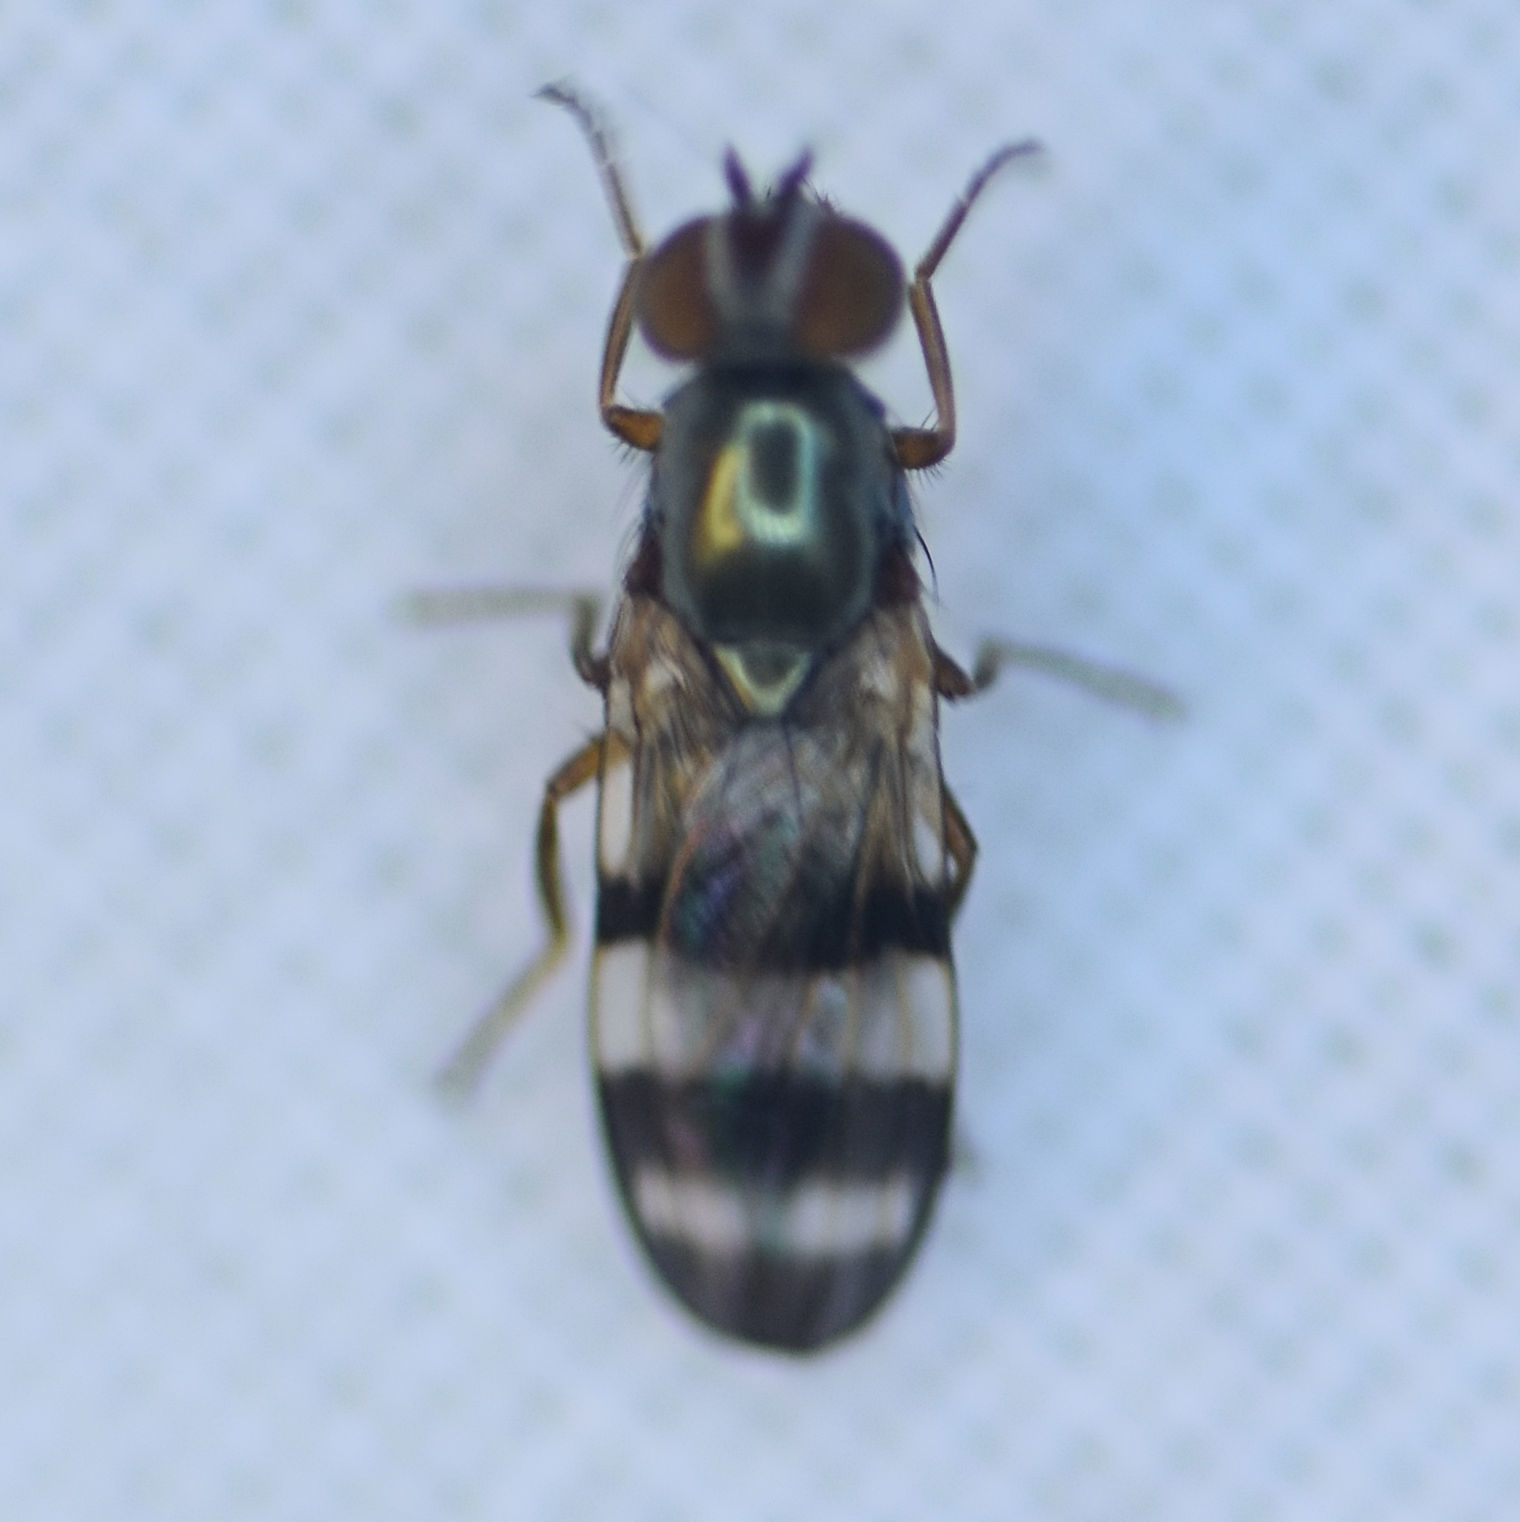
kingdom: Animalia
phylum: Arthropoda
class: Insecta
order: Diptera
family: Ulidiidae
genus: Chaetopsis
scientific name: Chaetopsis massyla
